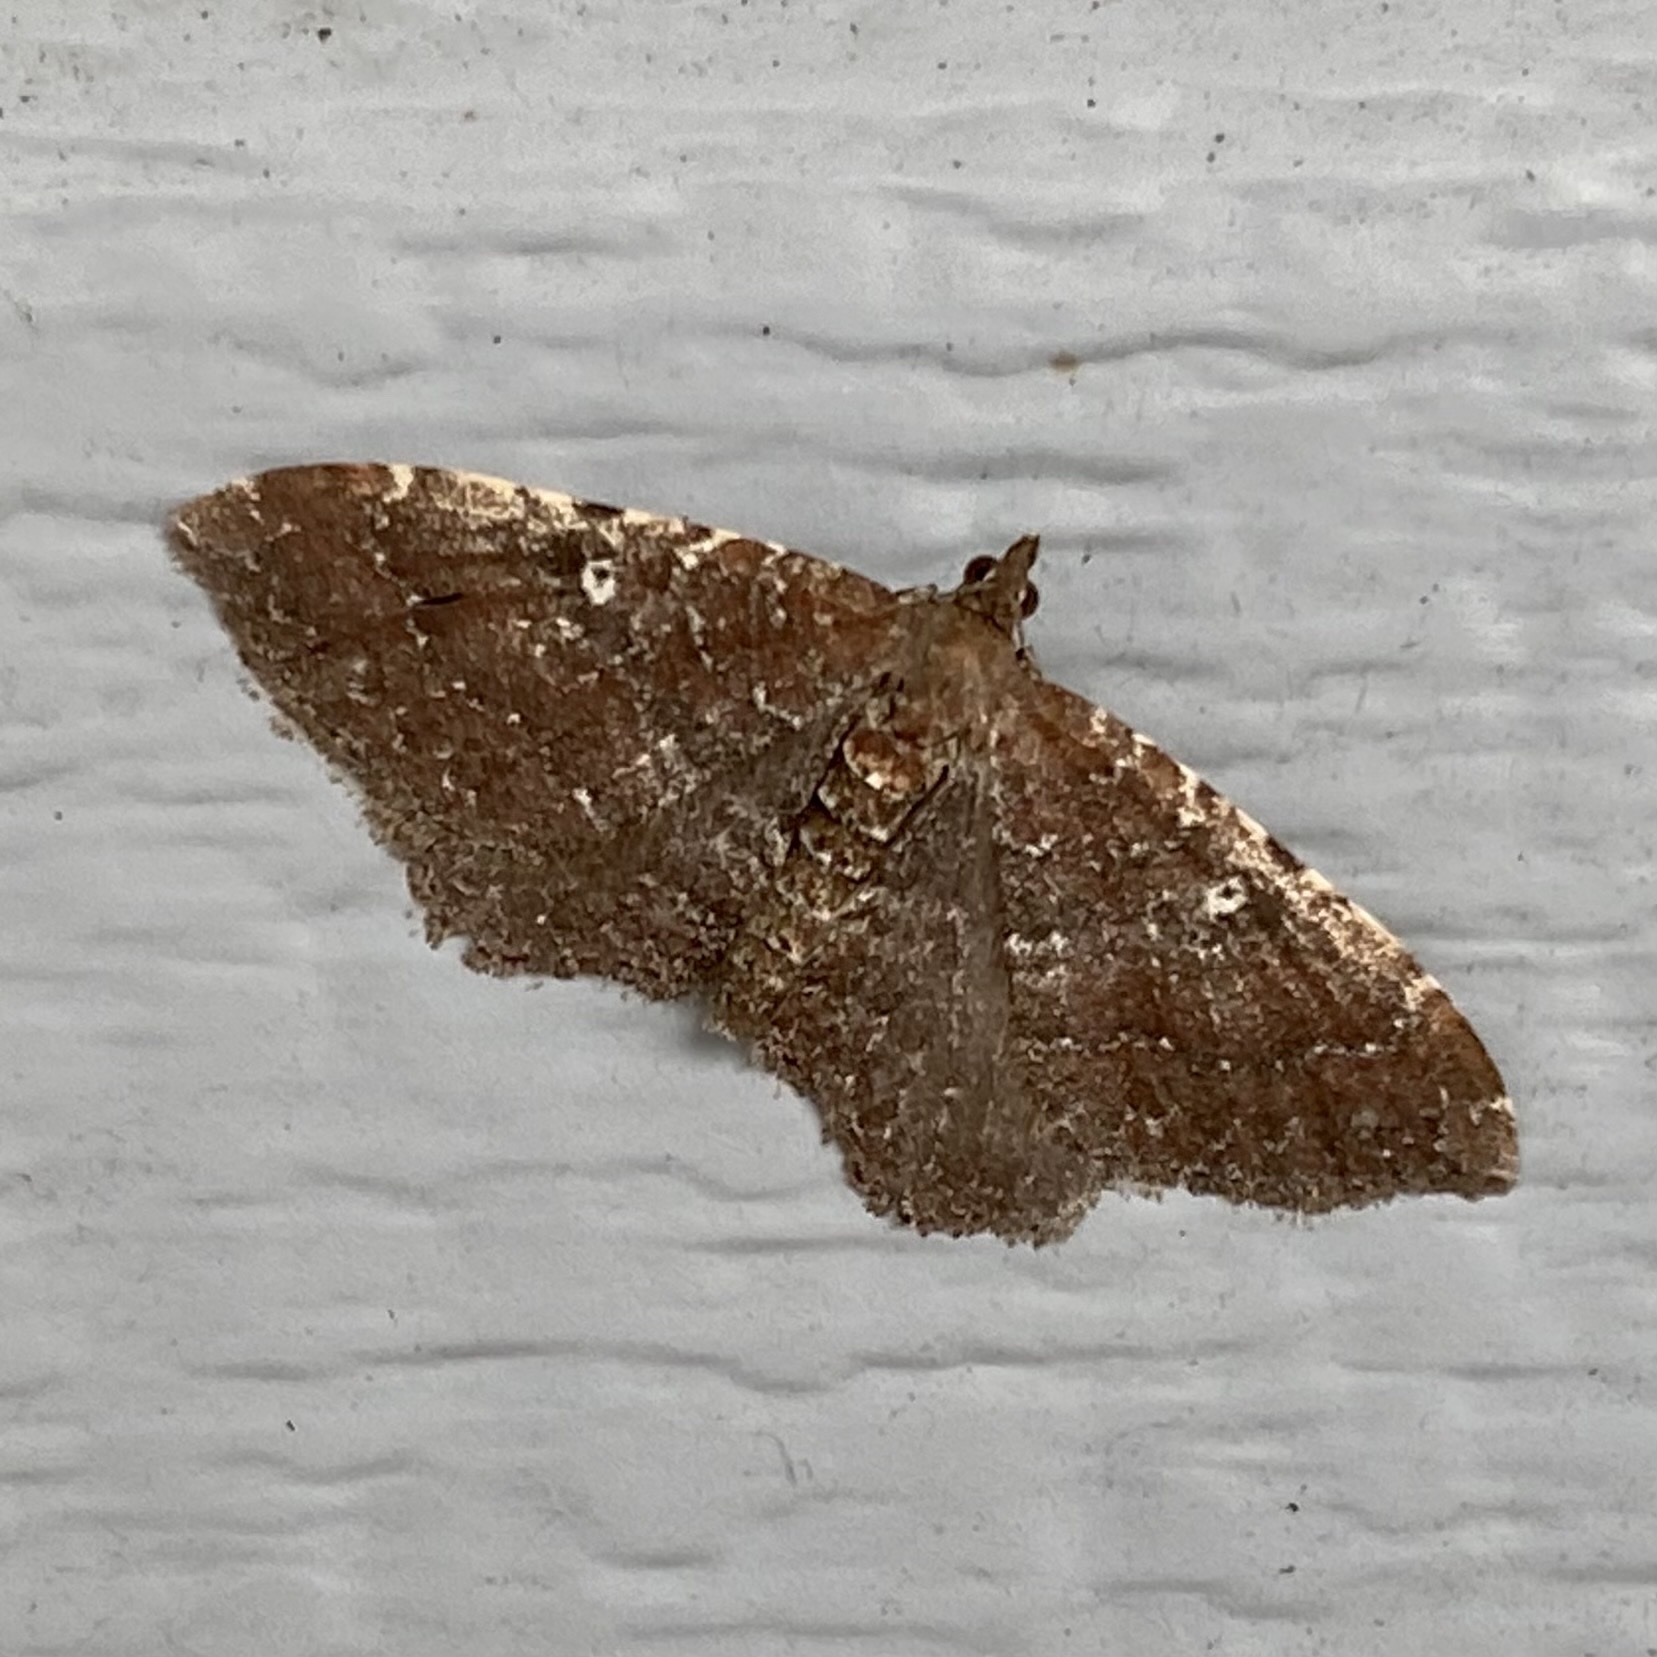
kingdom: Animalia
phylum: Arthropoda
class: Insecta
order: Lepidoptera
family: Geometridae
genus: Orthonama
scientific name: Orthonama obstipata
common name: The gem
